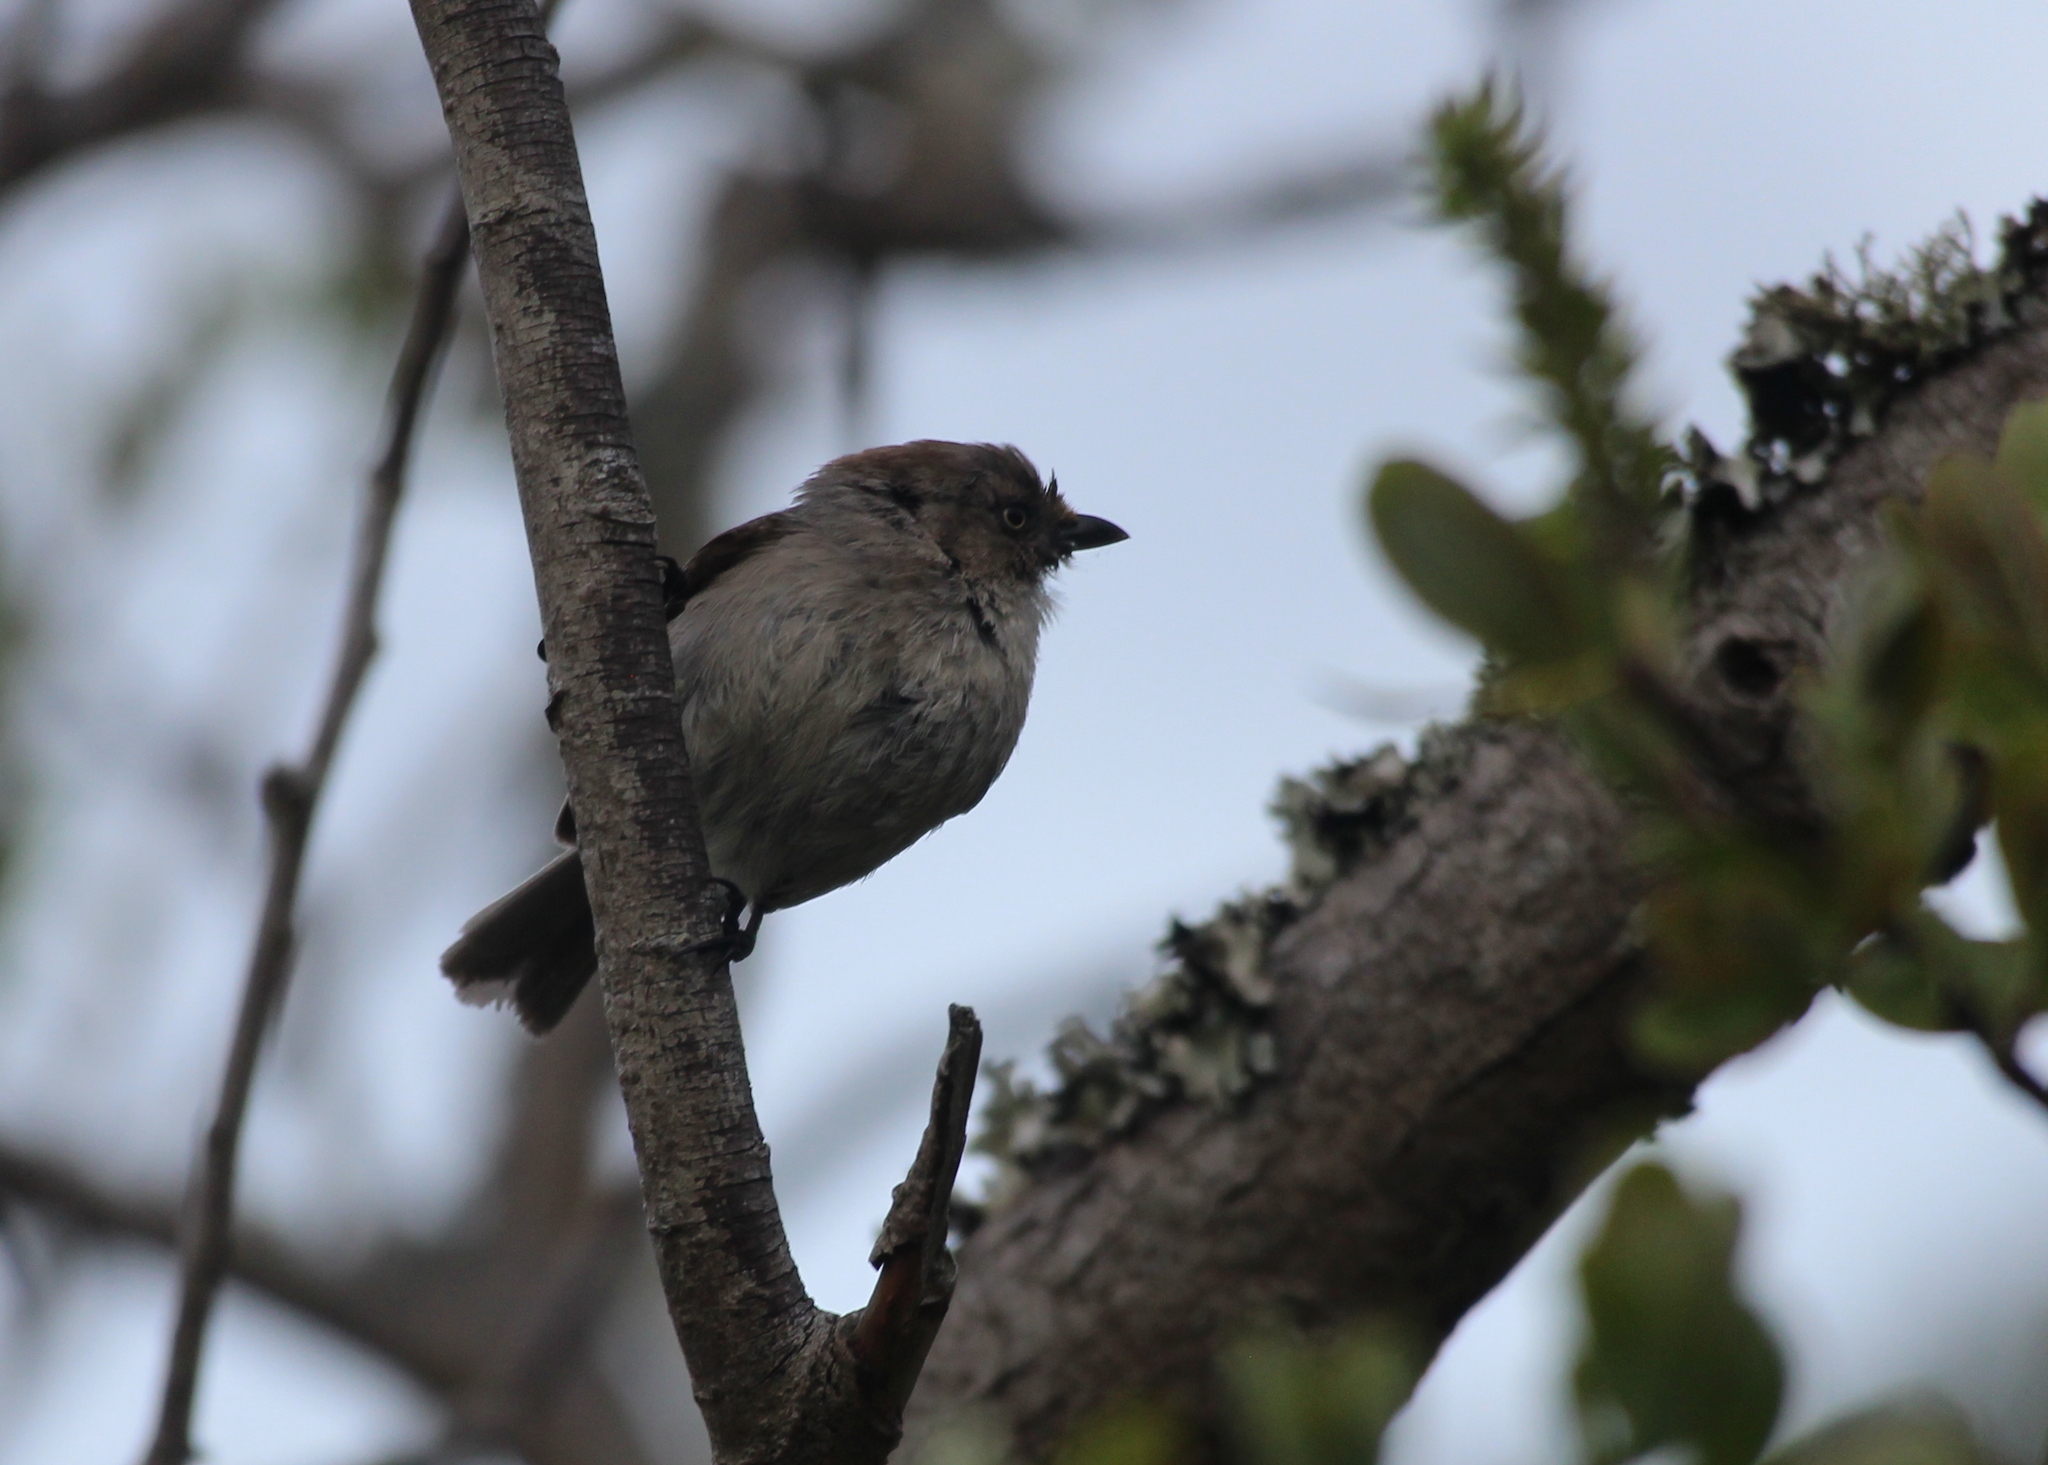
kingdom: Animalia
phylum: Chordata
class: Aves
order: Passeriformes
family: Aegithalidae
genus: Psaltriparus
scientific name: Psaltriparus minimus
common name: American bushtit
